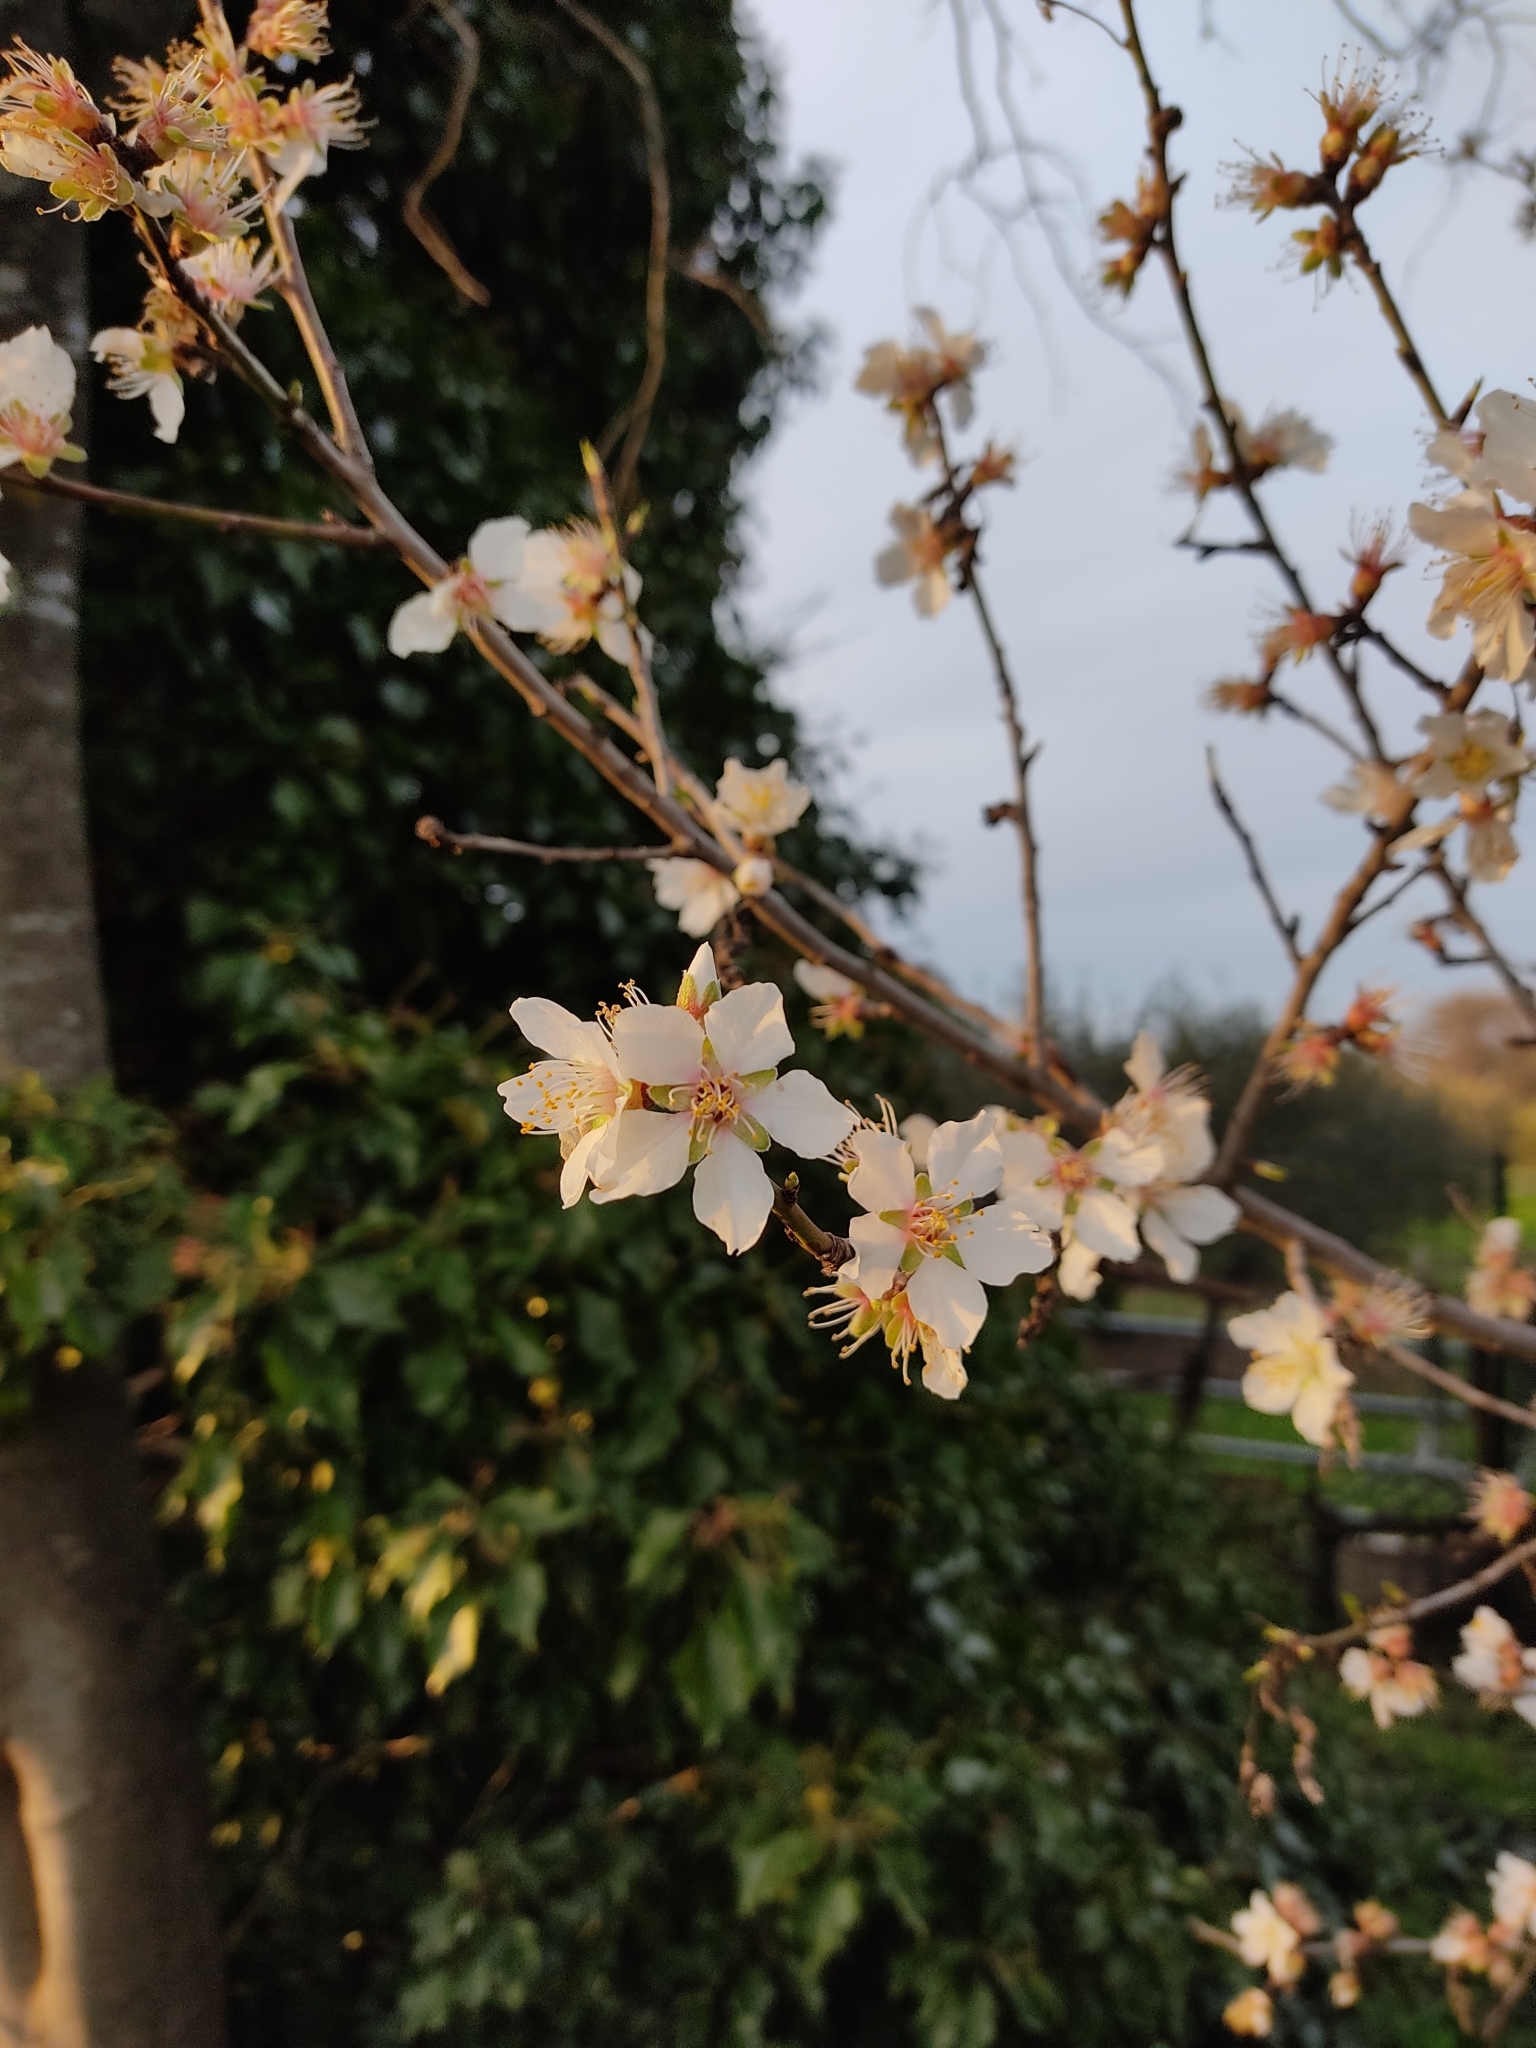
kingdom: Plantae
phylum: Tracheophyta
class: Magnoliopsida
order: Rosales
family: Rosaceae
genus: Prunus
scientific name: Prunus amygdalus
